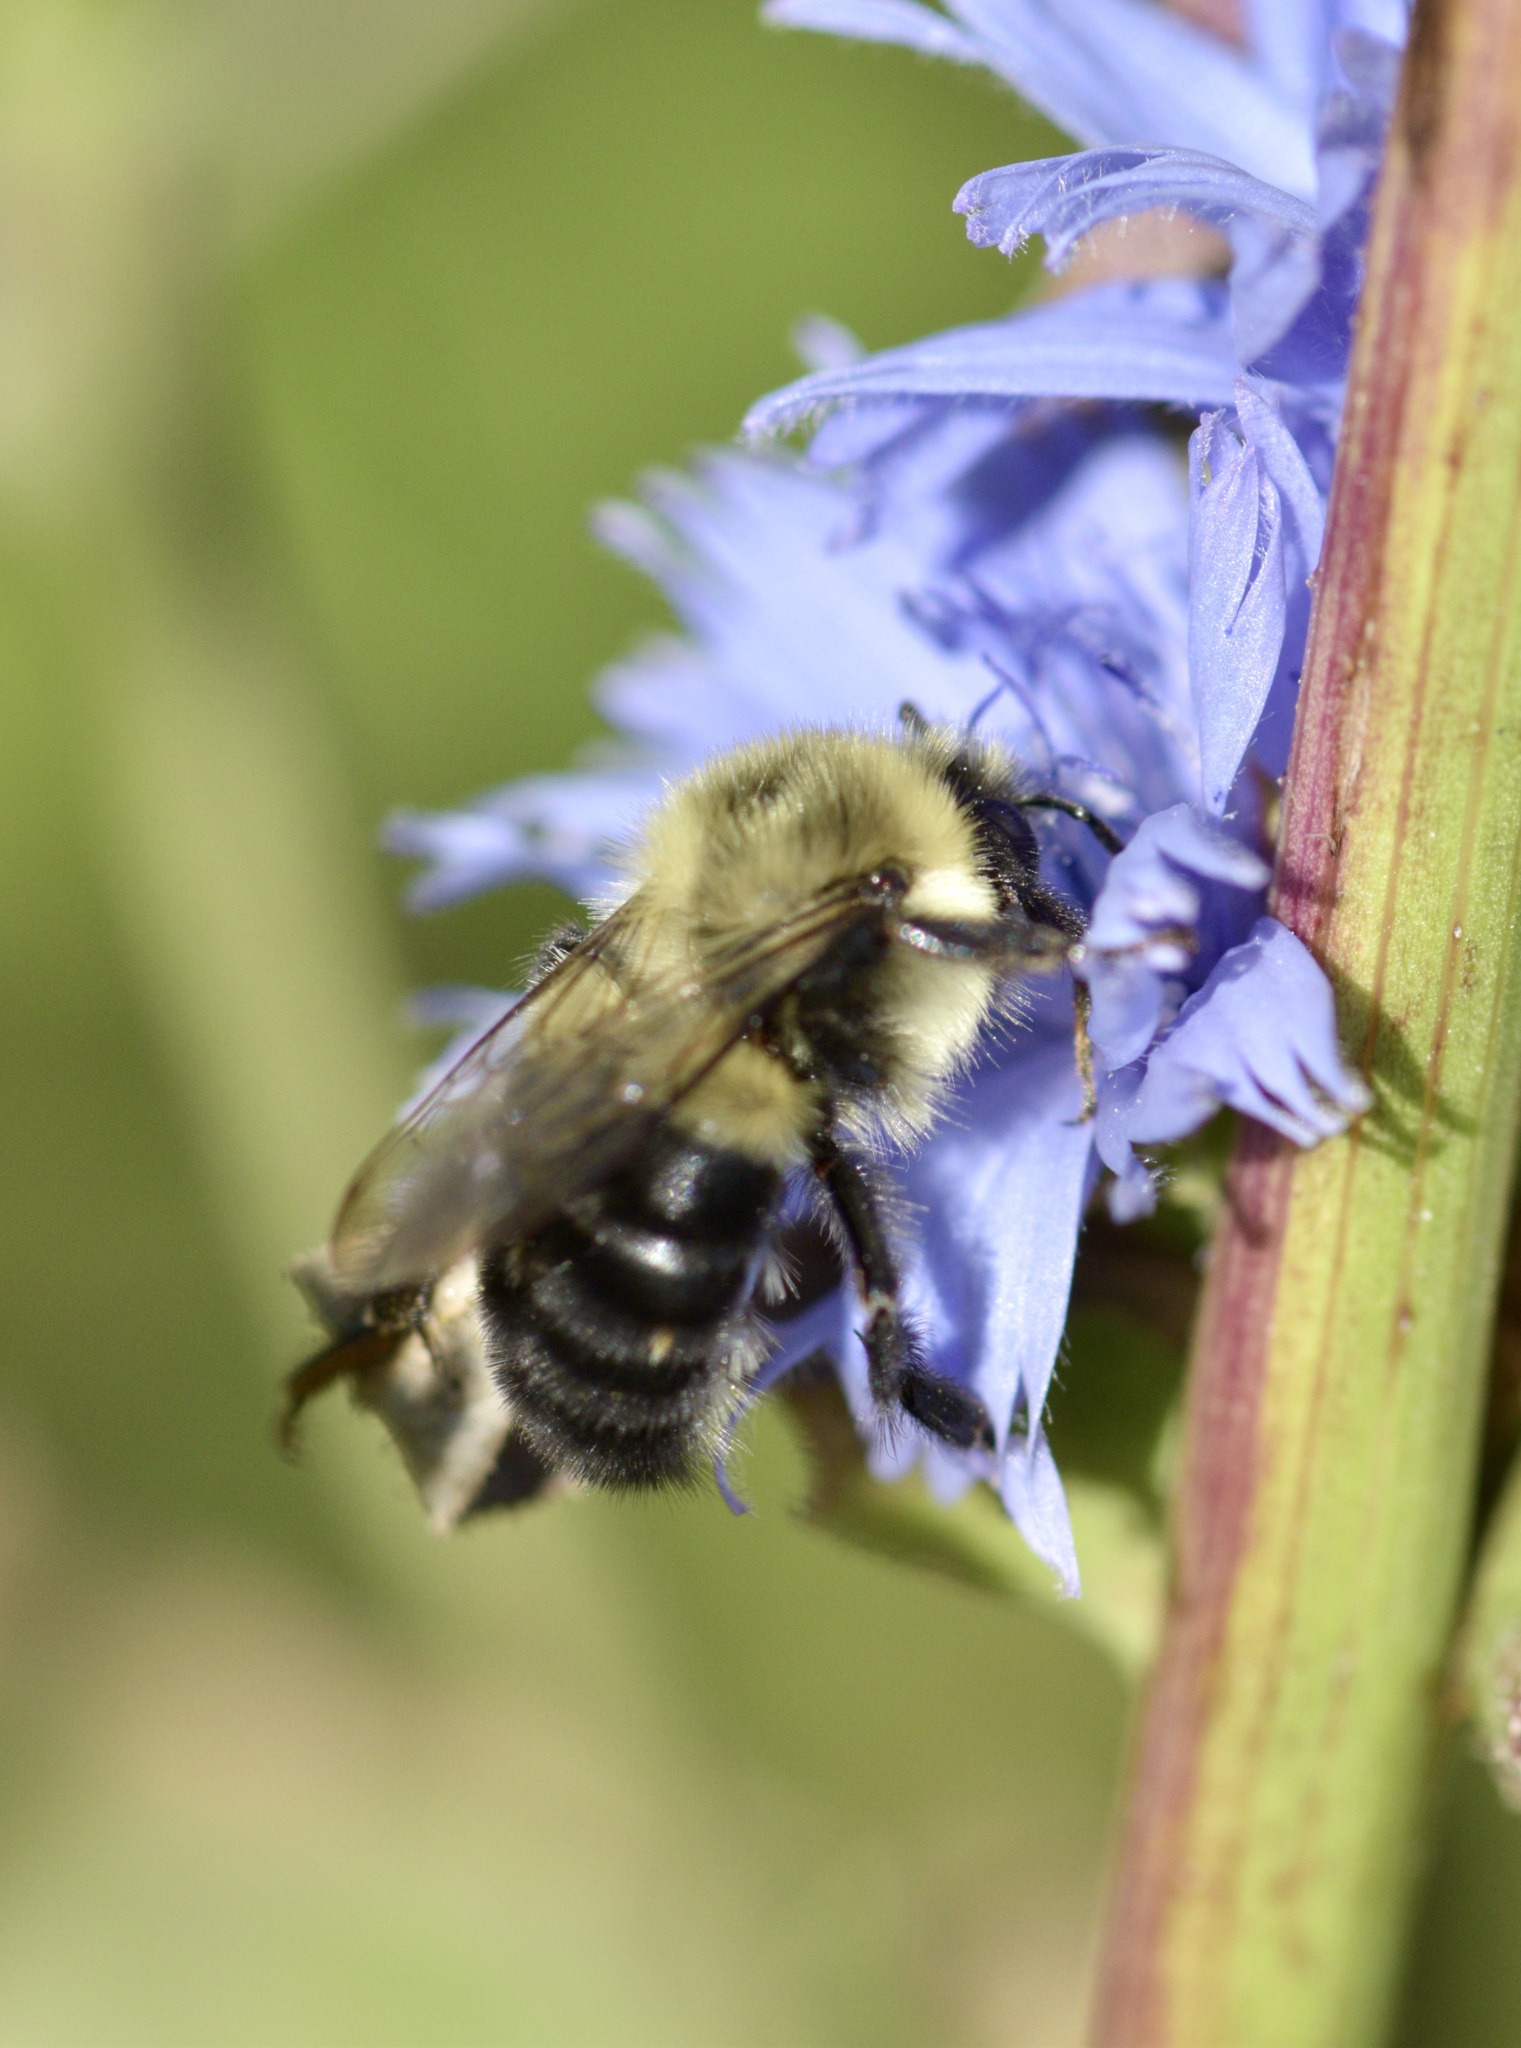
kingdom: Animalia
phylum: Arthropoda
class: Insecta
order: Hymenoptera
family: Apidae
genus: Bombus
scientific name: Bombus impatiens
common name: Common eastern bumble bee
